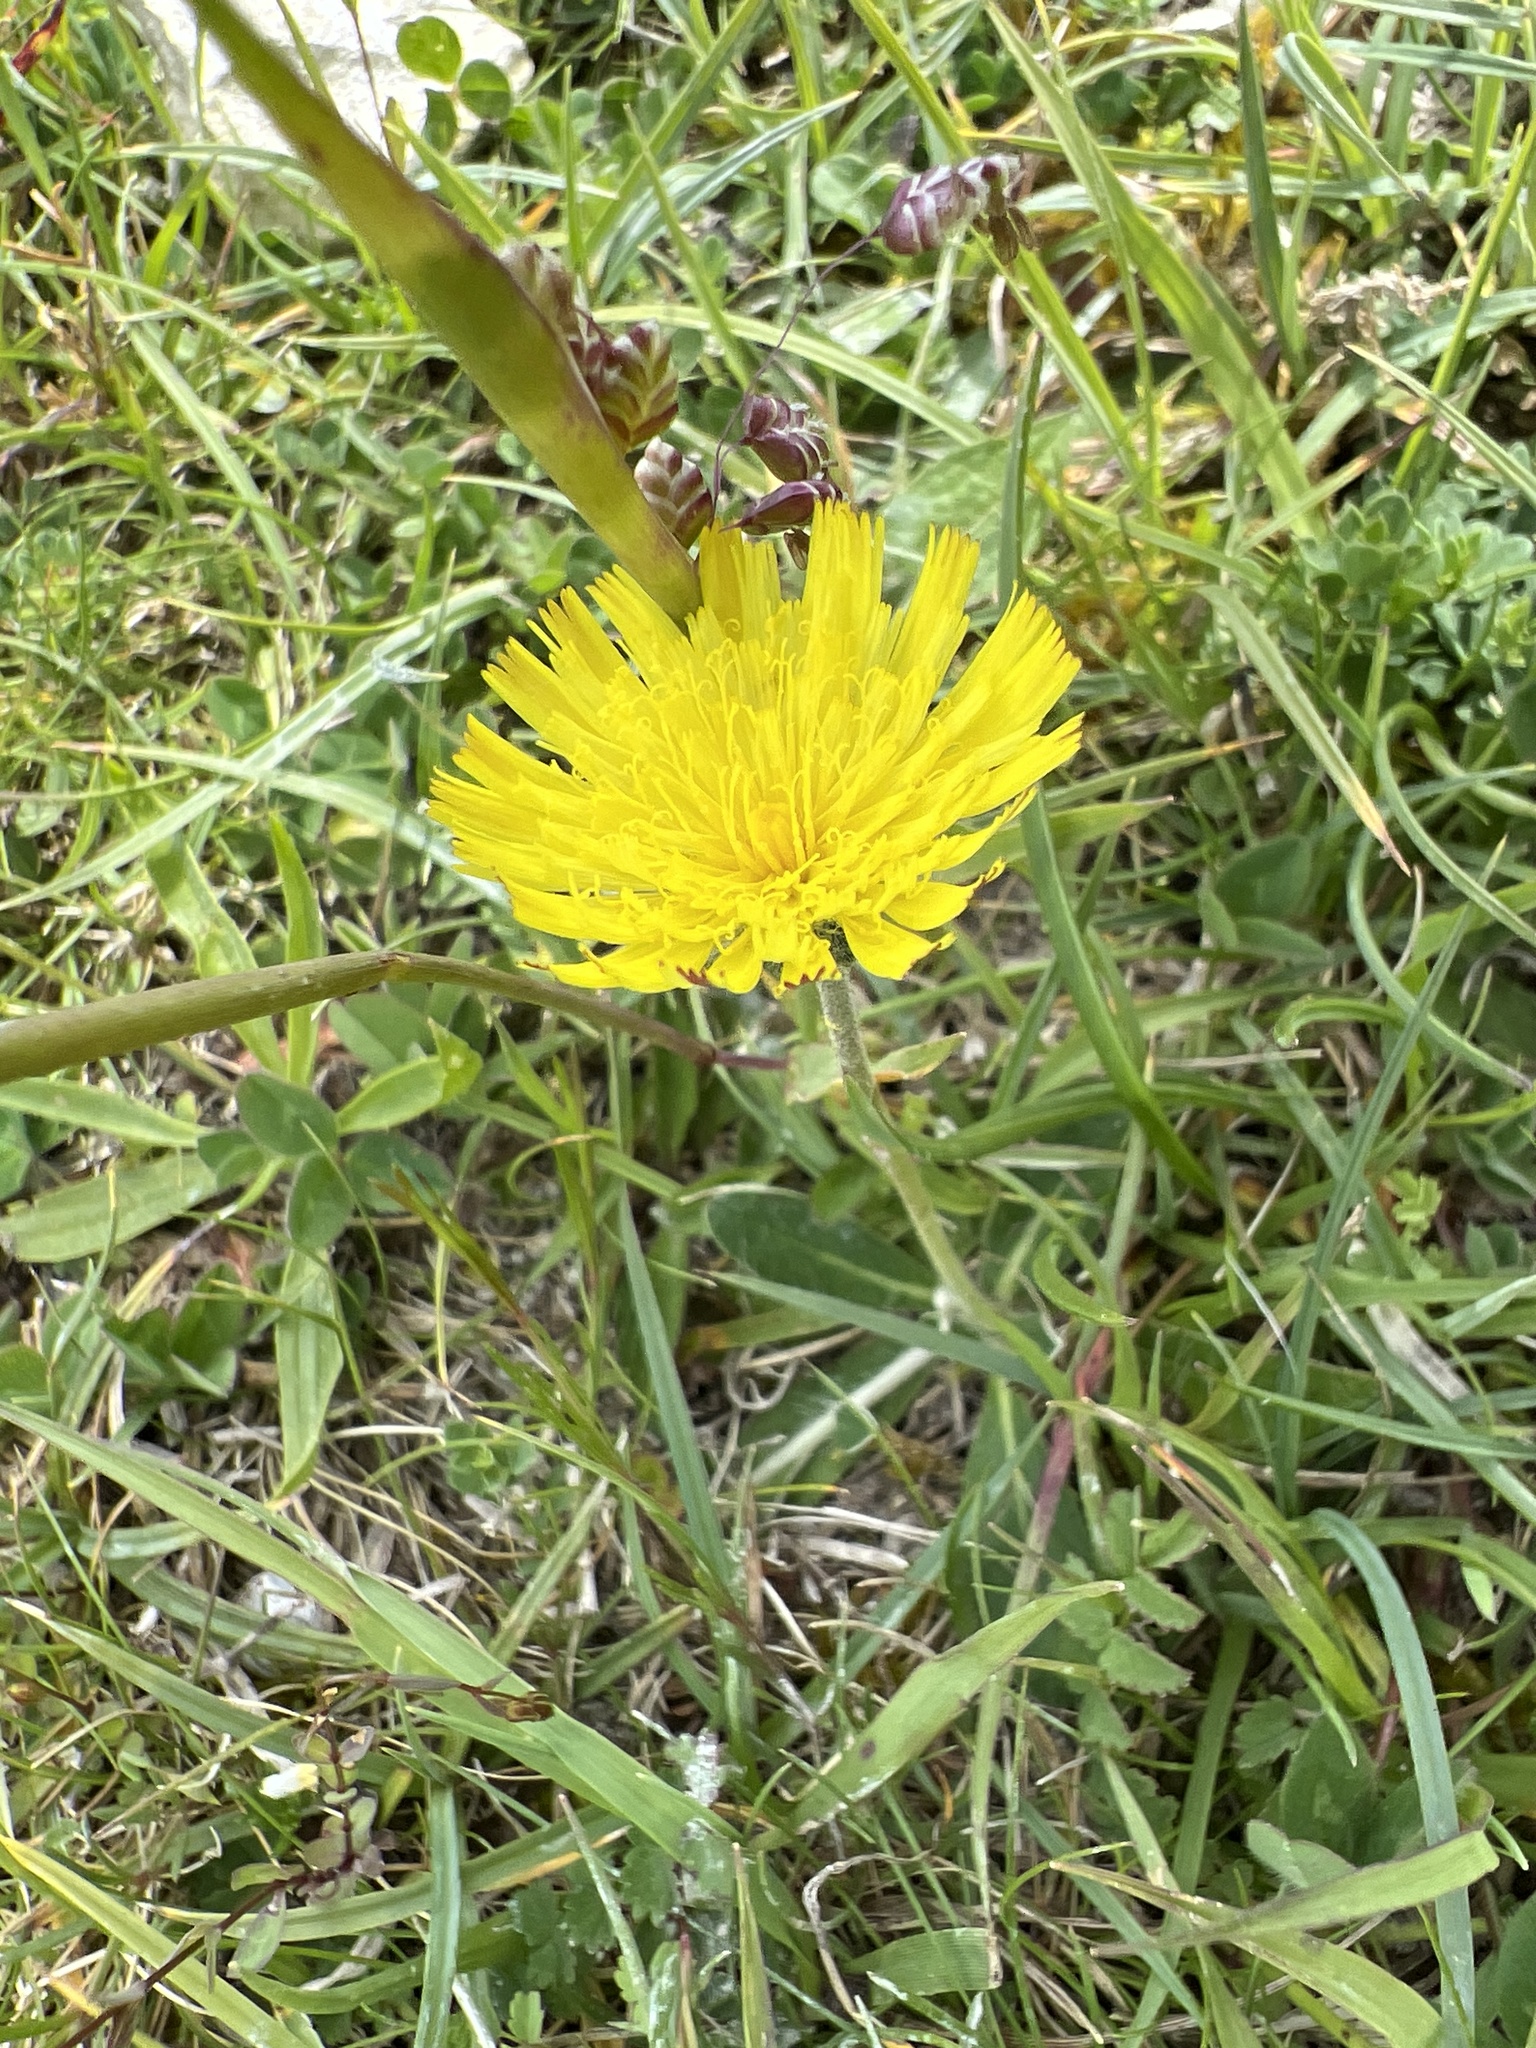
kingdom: Plantae
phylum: Tracheophyta
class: Magnoliopsida
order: Asterales
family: Asteraceae
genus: Pilosella
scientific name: Pilosella officinarum
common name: Mouse-ear hawkweed
